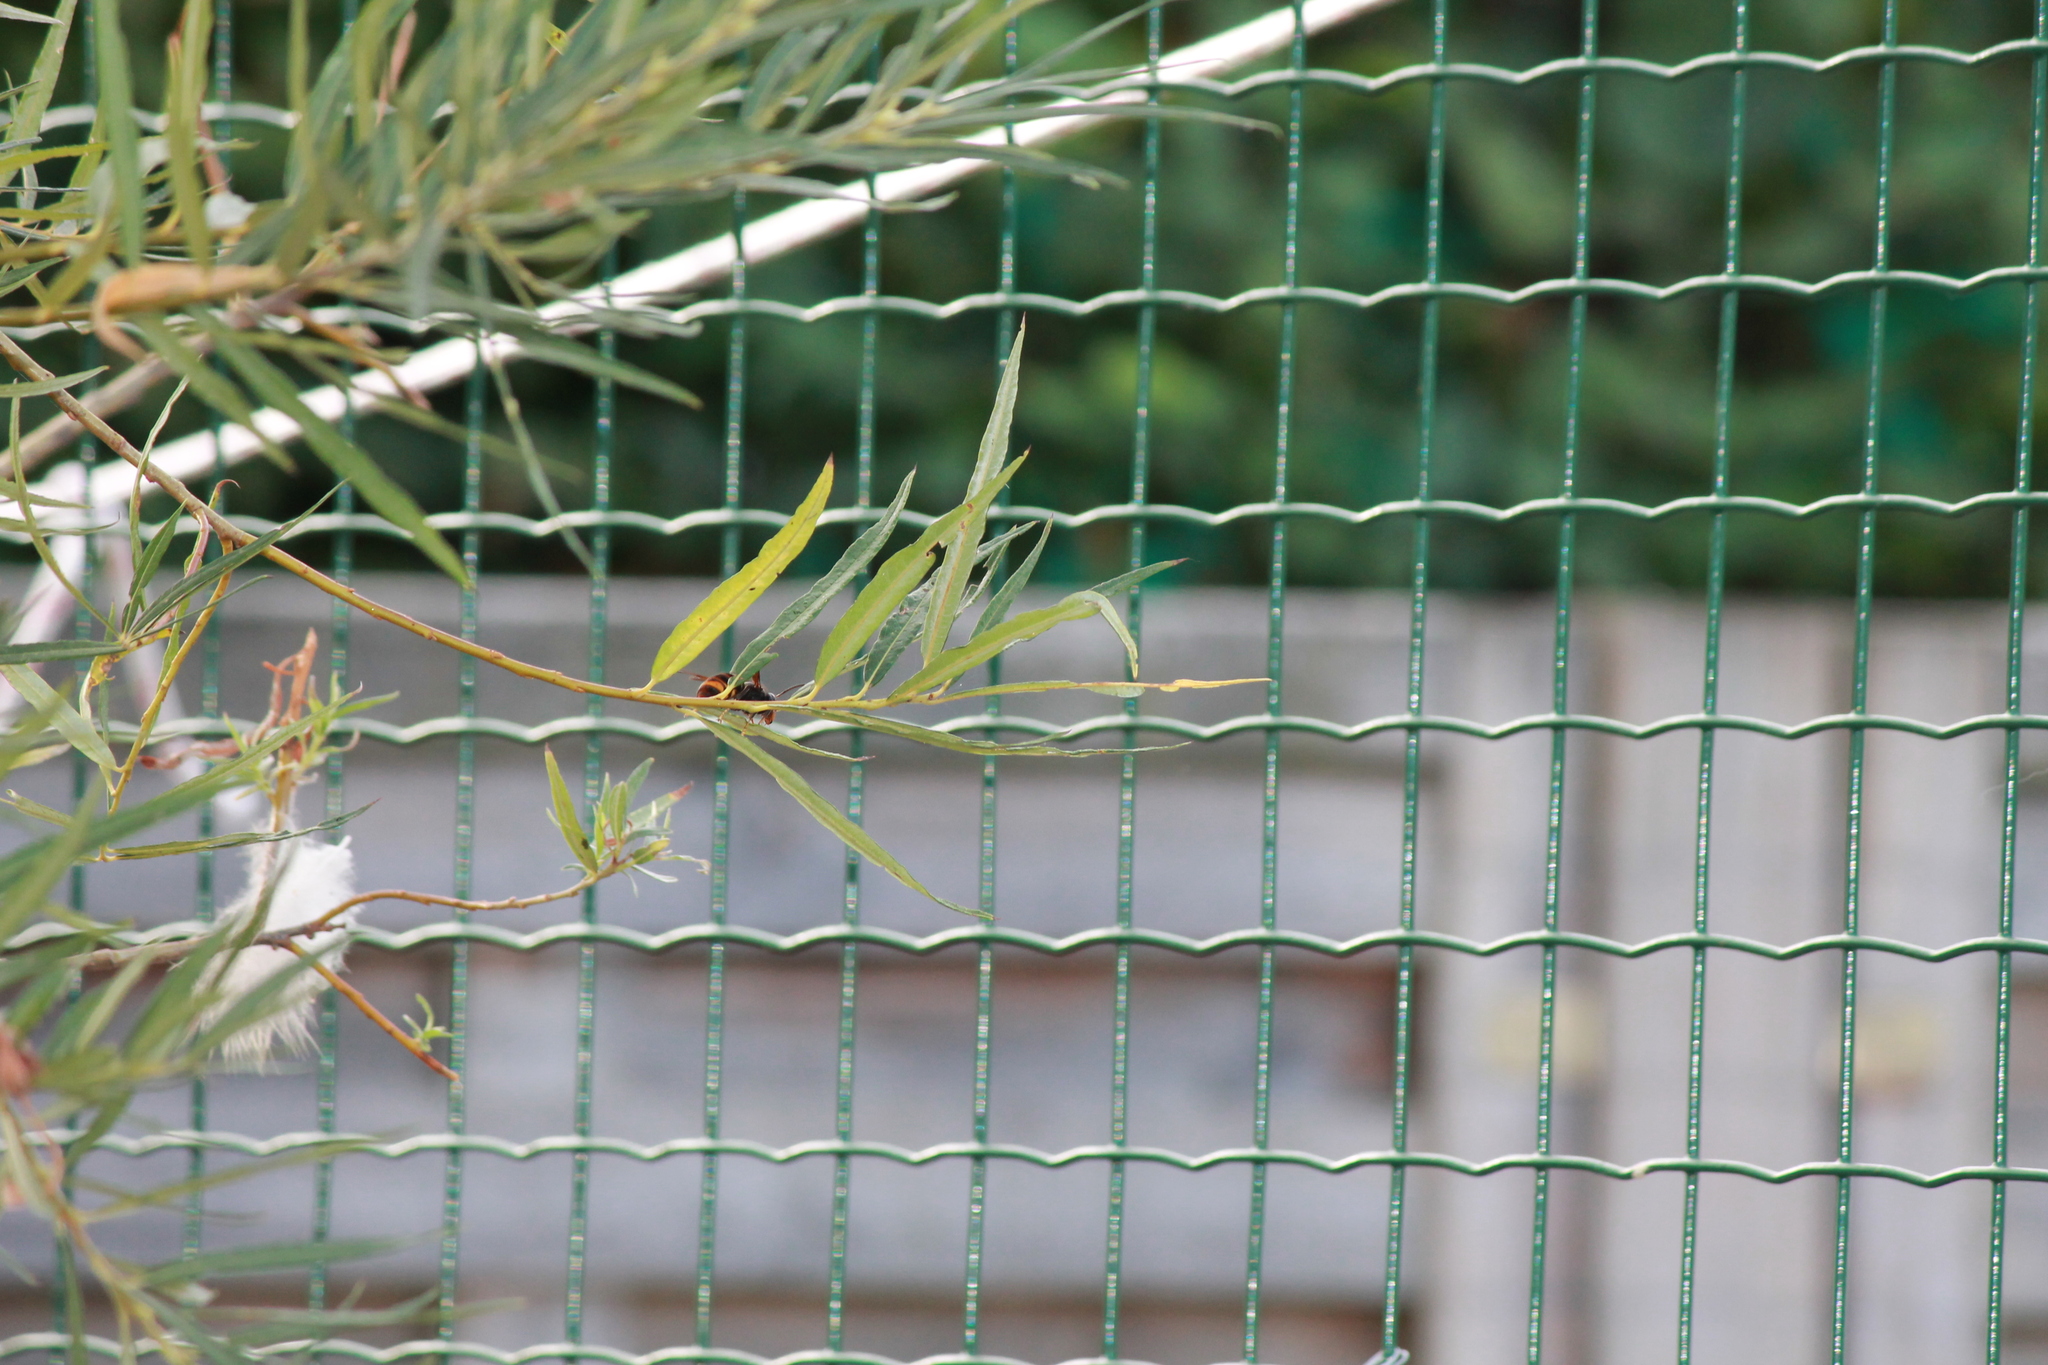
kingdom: Animalia
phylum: Arthropoda
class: Insecta
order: Hymenoptera
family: Vespidae
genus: Vespa
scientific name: Vespa velutina
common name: Asian hornet
